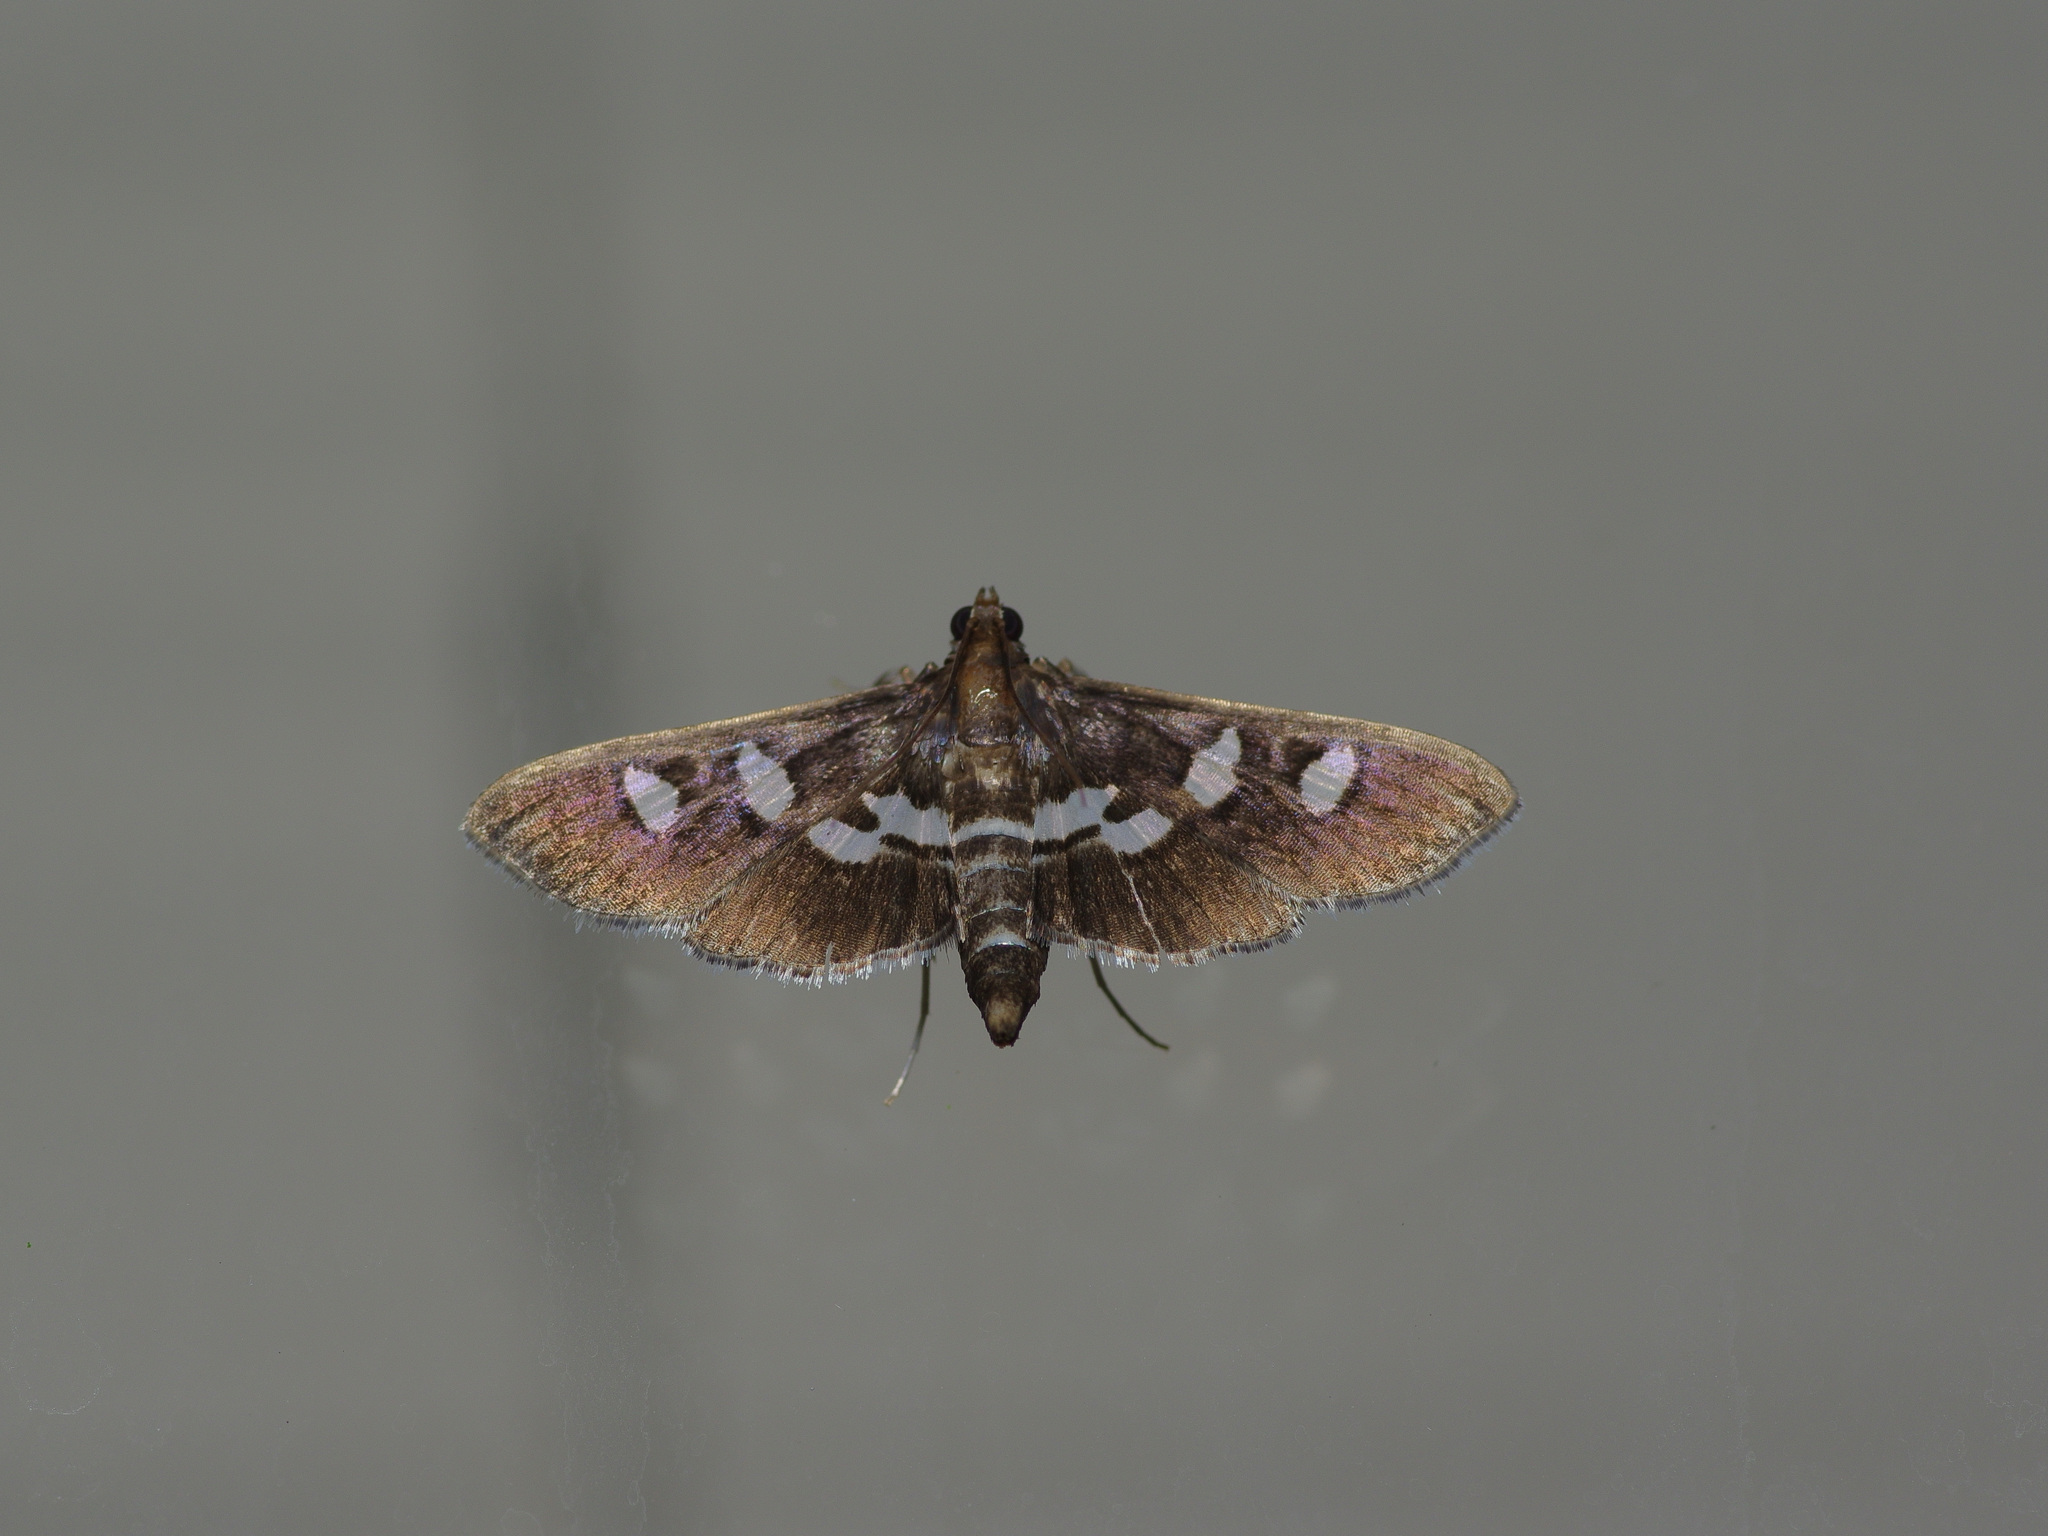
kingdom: Animalia
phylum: Arthropoda
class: Insecta
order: Lepidoptera
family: Crambidae
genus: Desmia
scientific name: Desmia funeralis
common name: Grape leaf folder moth
